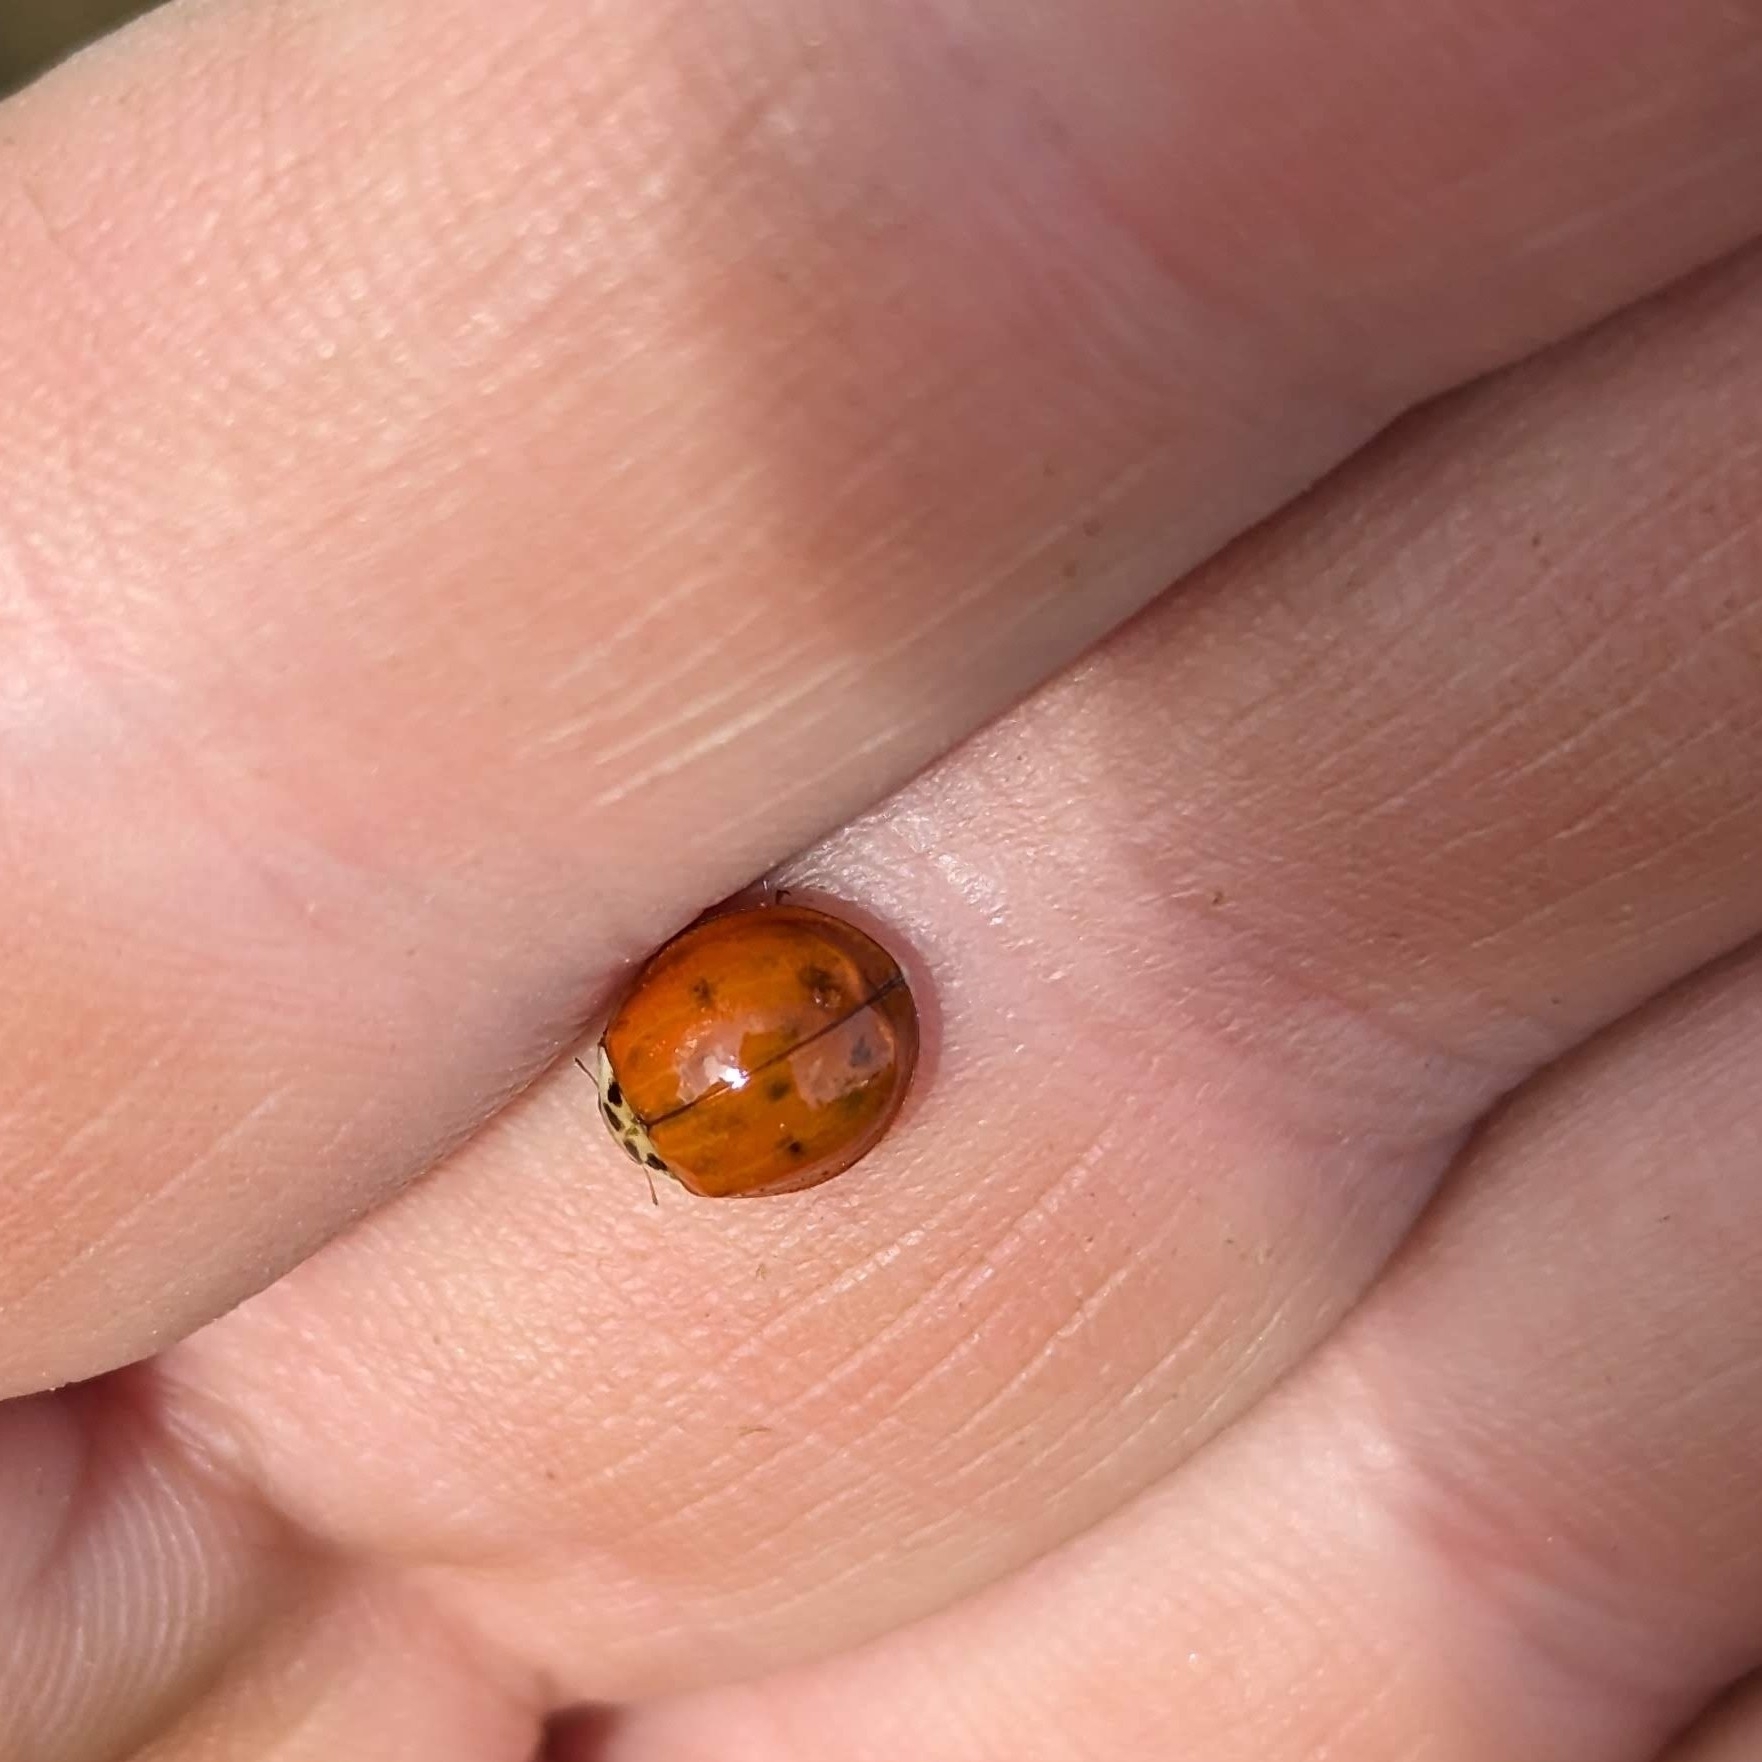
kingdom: Animalia
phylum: Arthropoda
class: Insecta
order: Coleoptera
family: Coccinellidae
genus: Harmonia
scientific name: Harmonia axyridis
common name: Harlequin ladybird
